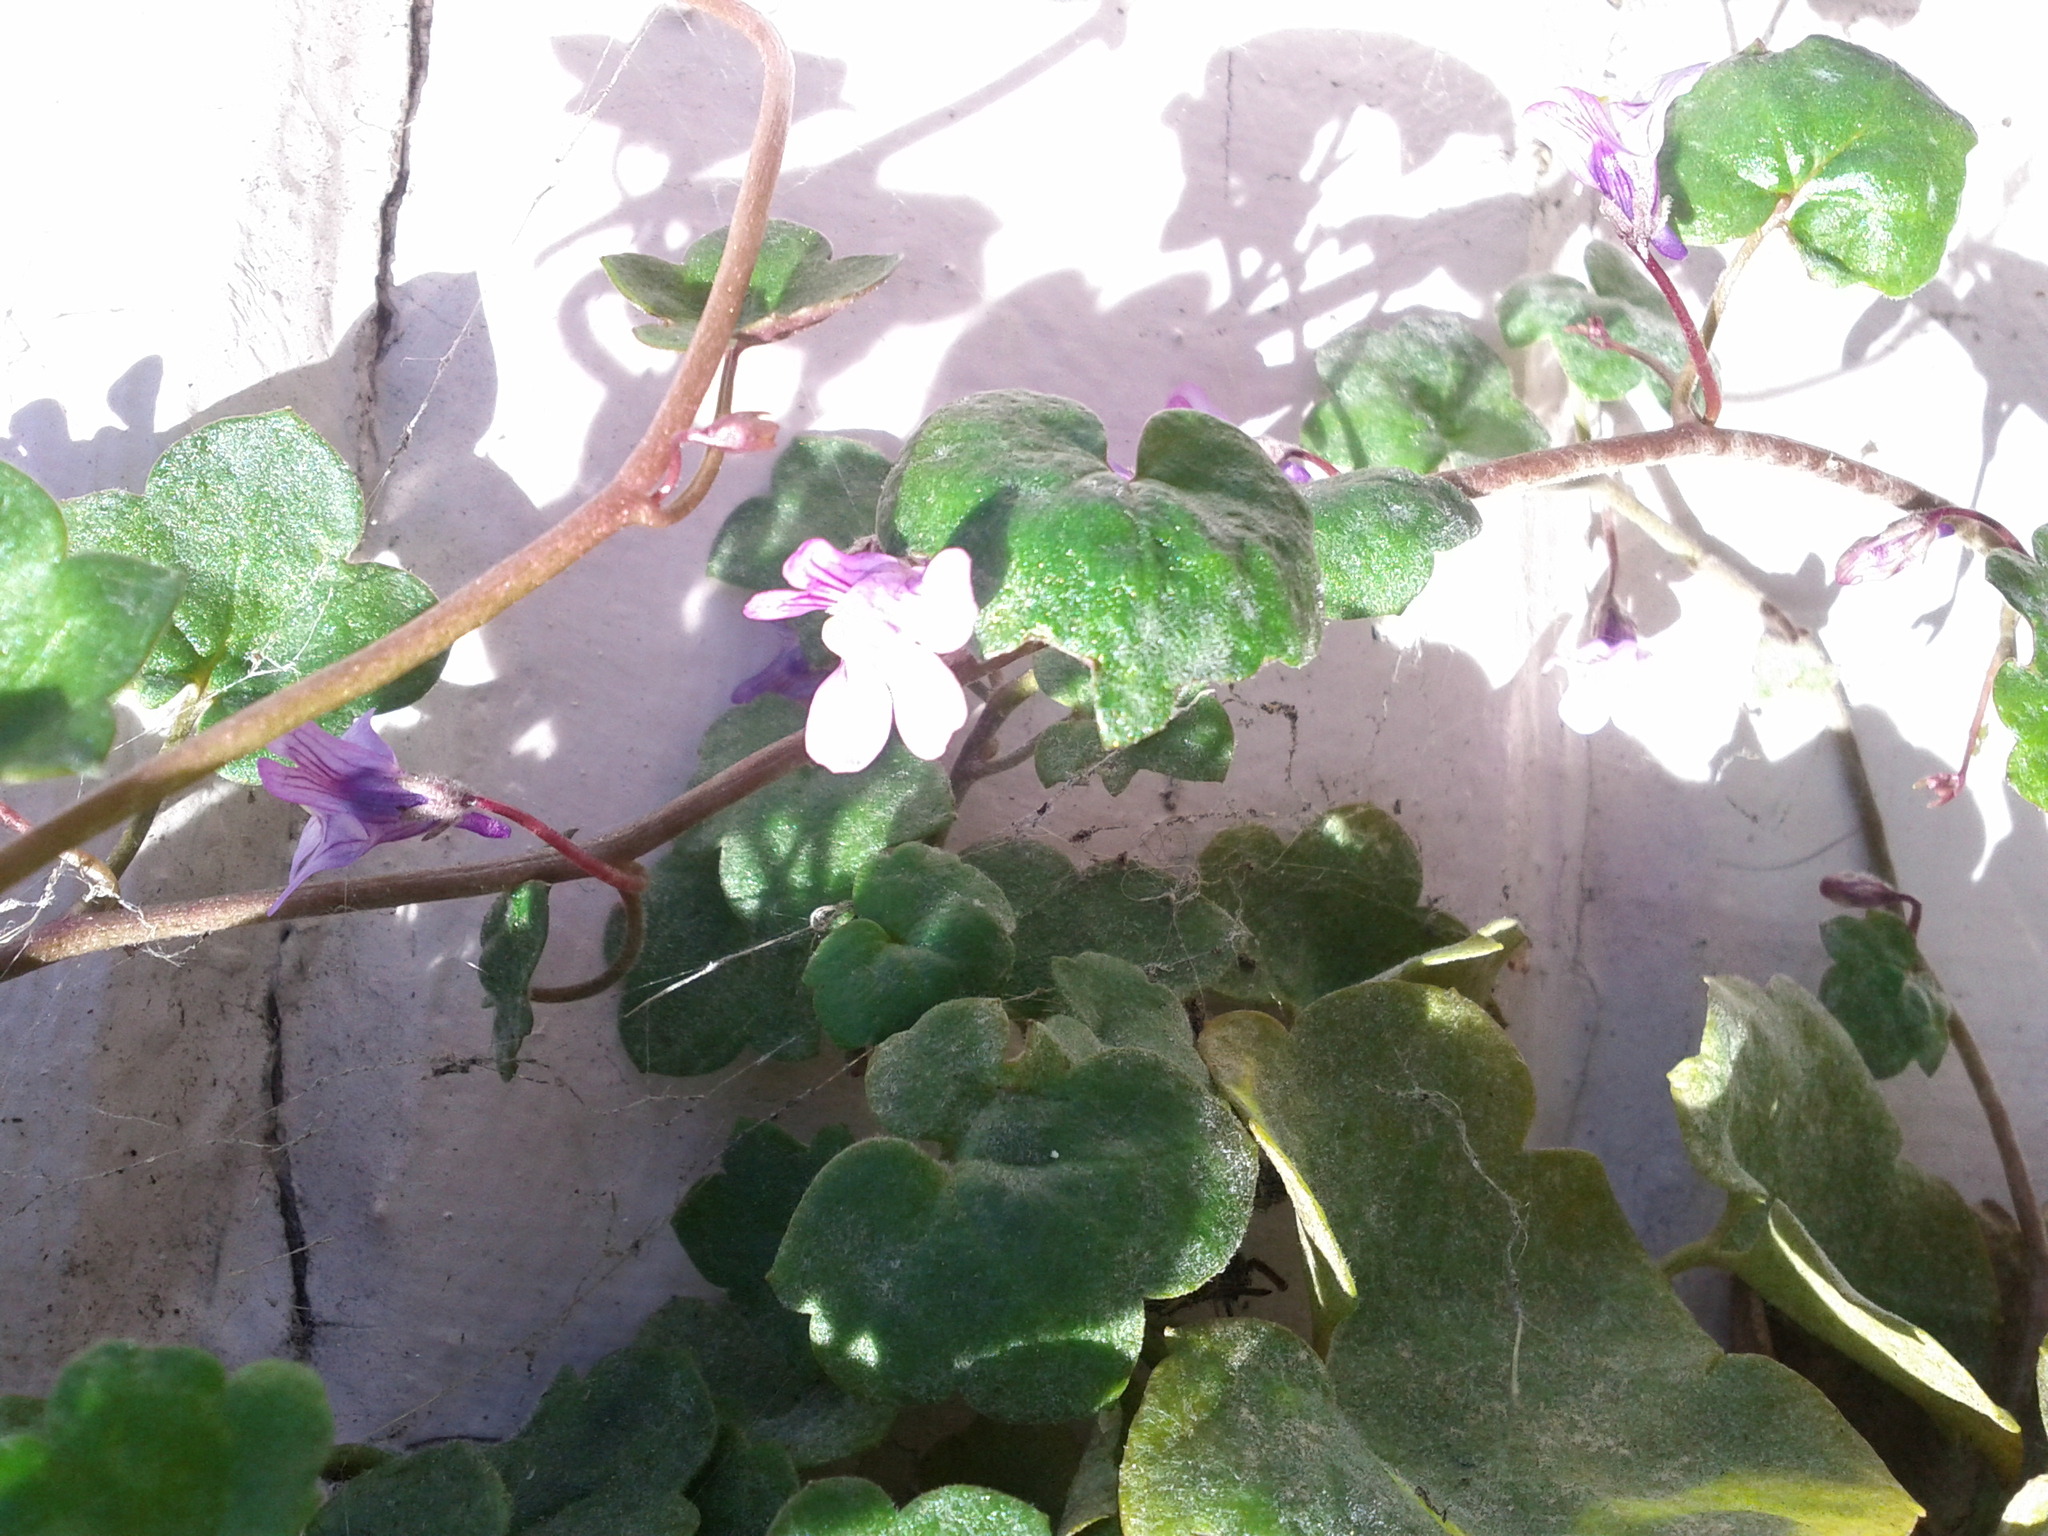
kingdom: Plantae
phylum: Tracheophyta
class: Magnoliopsida
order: Lamiales
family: Plantaginaceae
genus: Cymbalaria
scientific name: Cymbalaria muralis
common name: Ivy-leaved toadflax
